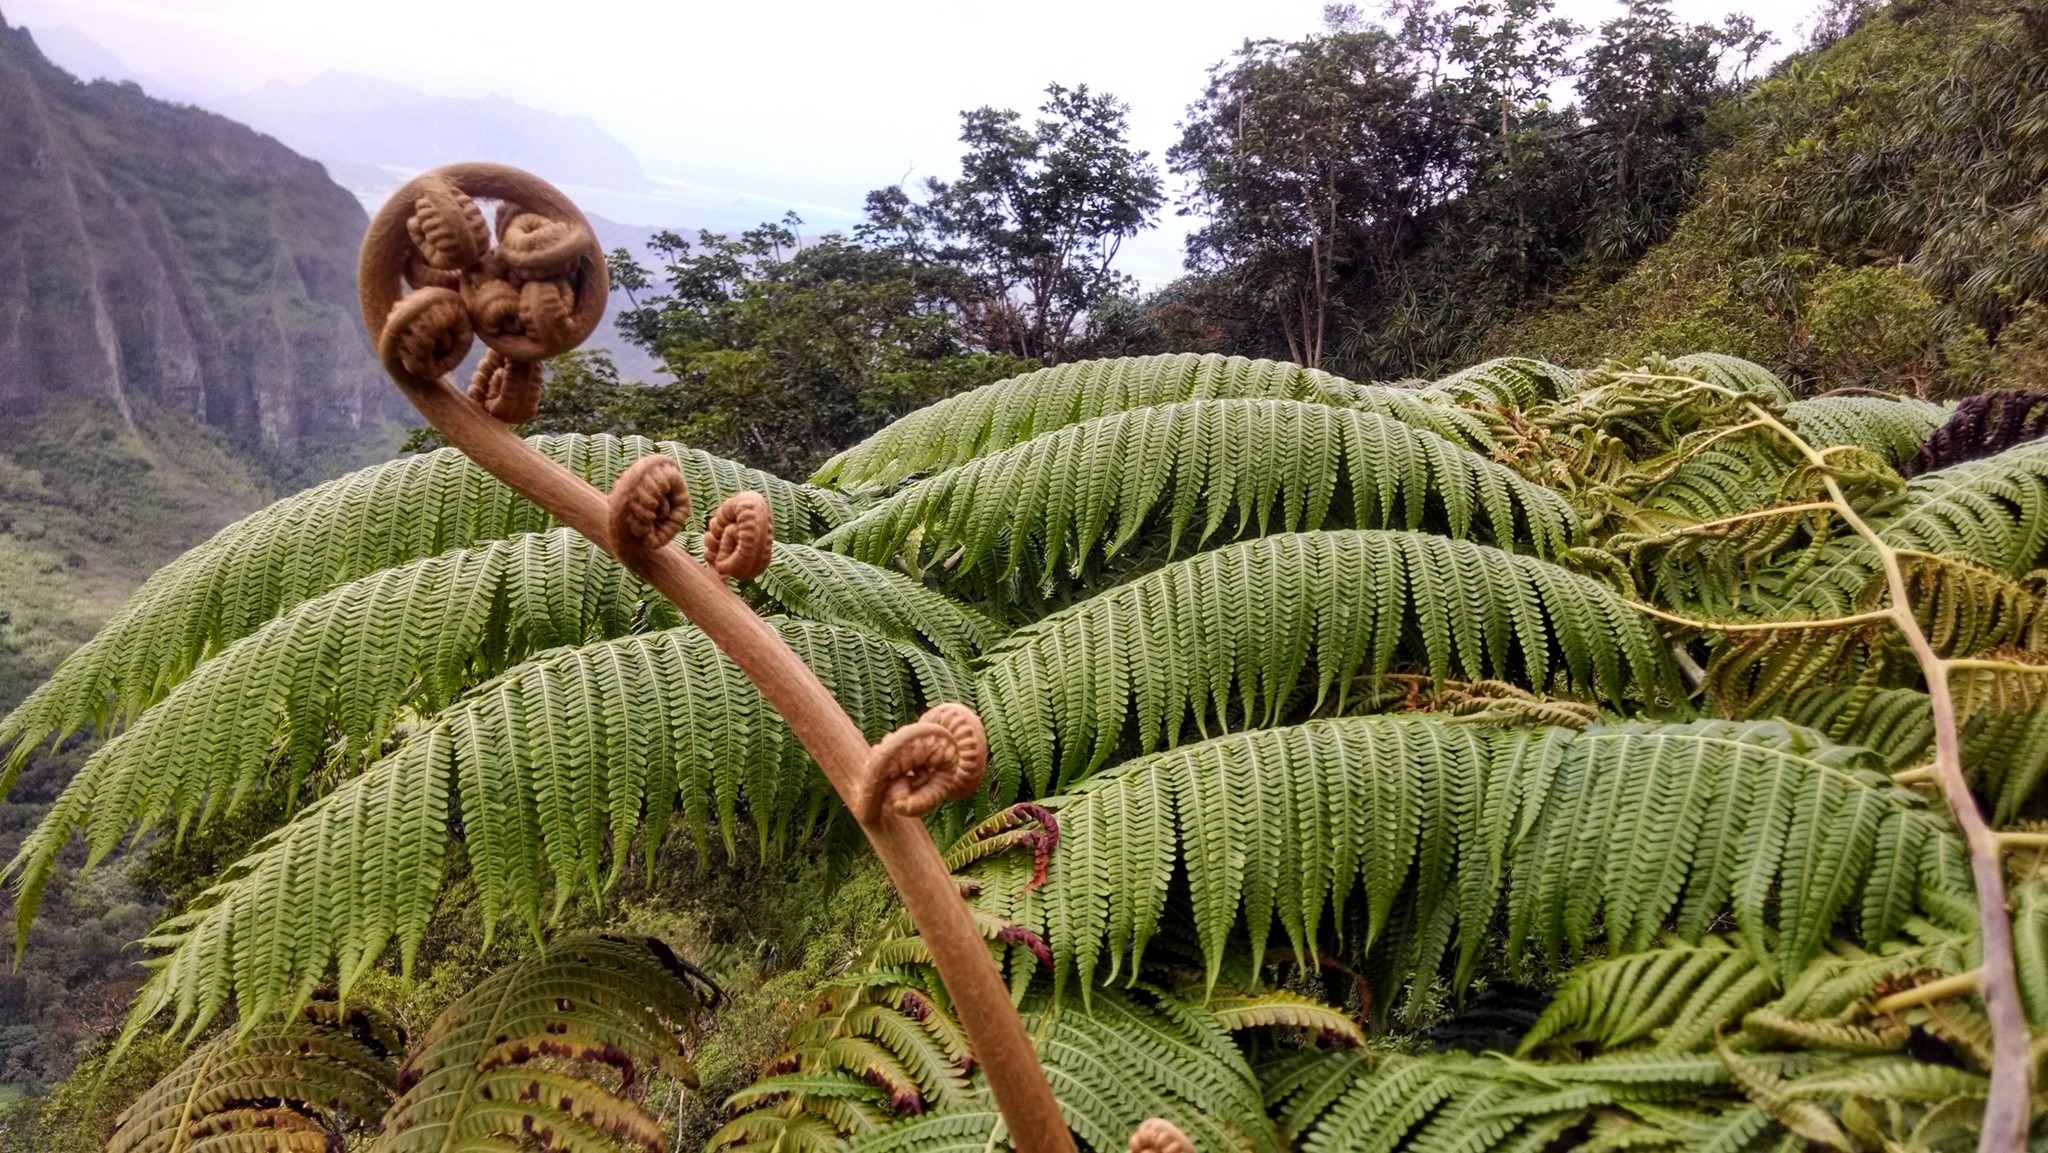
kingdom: Plantae
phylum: Tracheophyta
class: Polypodiopsida
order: Cyatheales
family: Cibotiaceae
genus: Cibotium
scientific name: Cibotium glaucum
